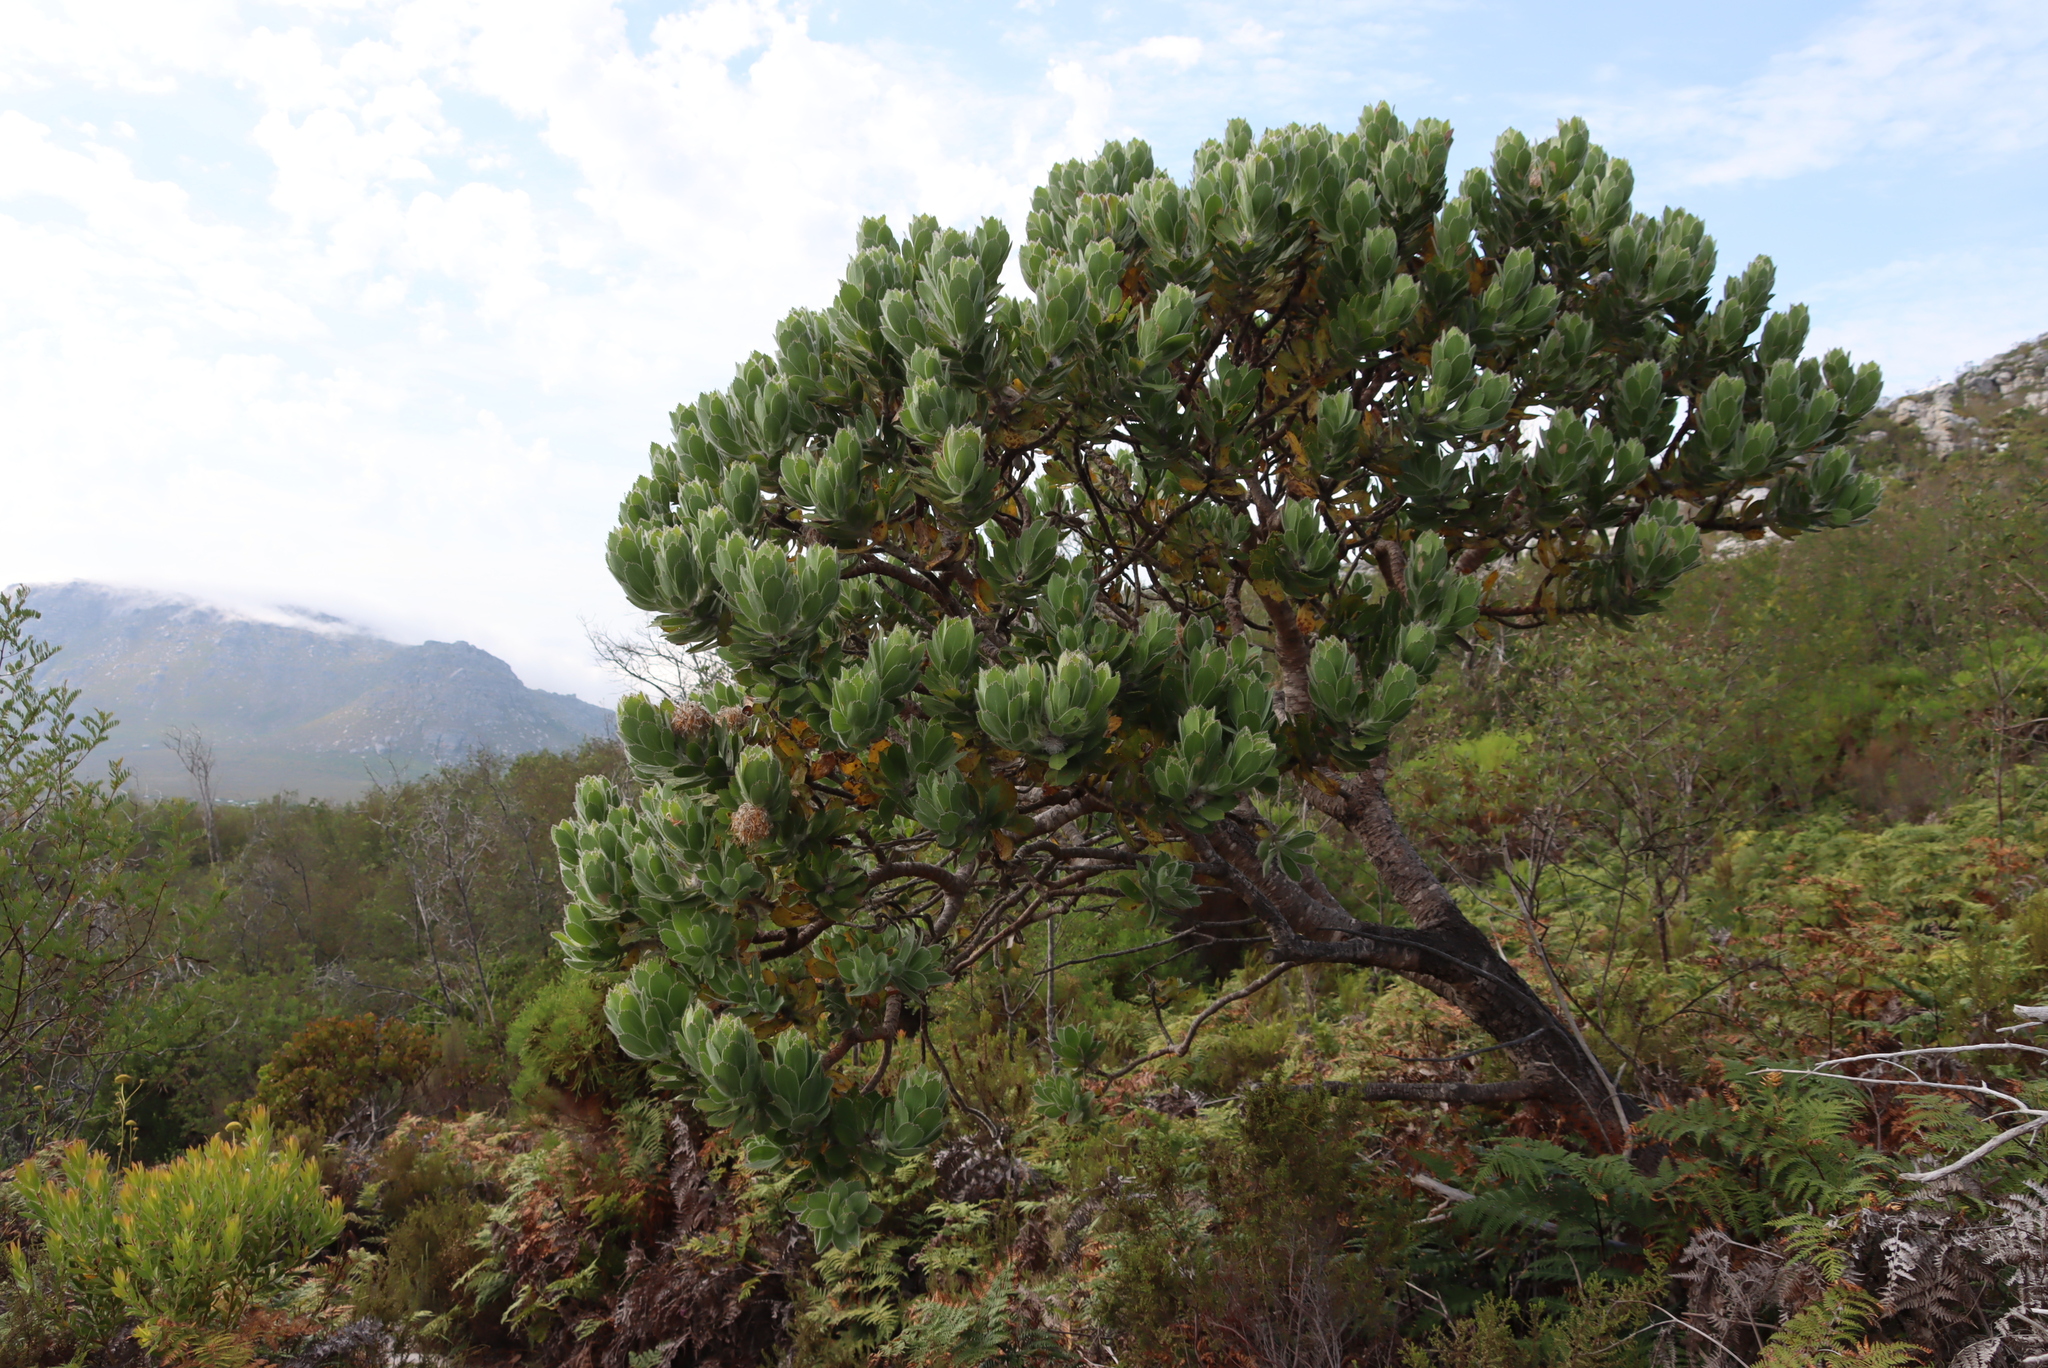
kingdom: Plantae
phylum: Tracheophyta
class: Magnoliopsida
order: Proteales
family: Proteaceae
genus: Leucospermum
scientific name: Leucospermum conocarpodendron
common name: Tree pincushion
